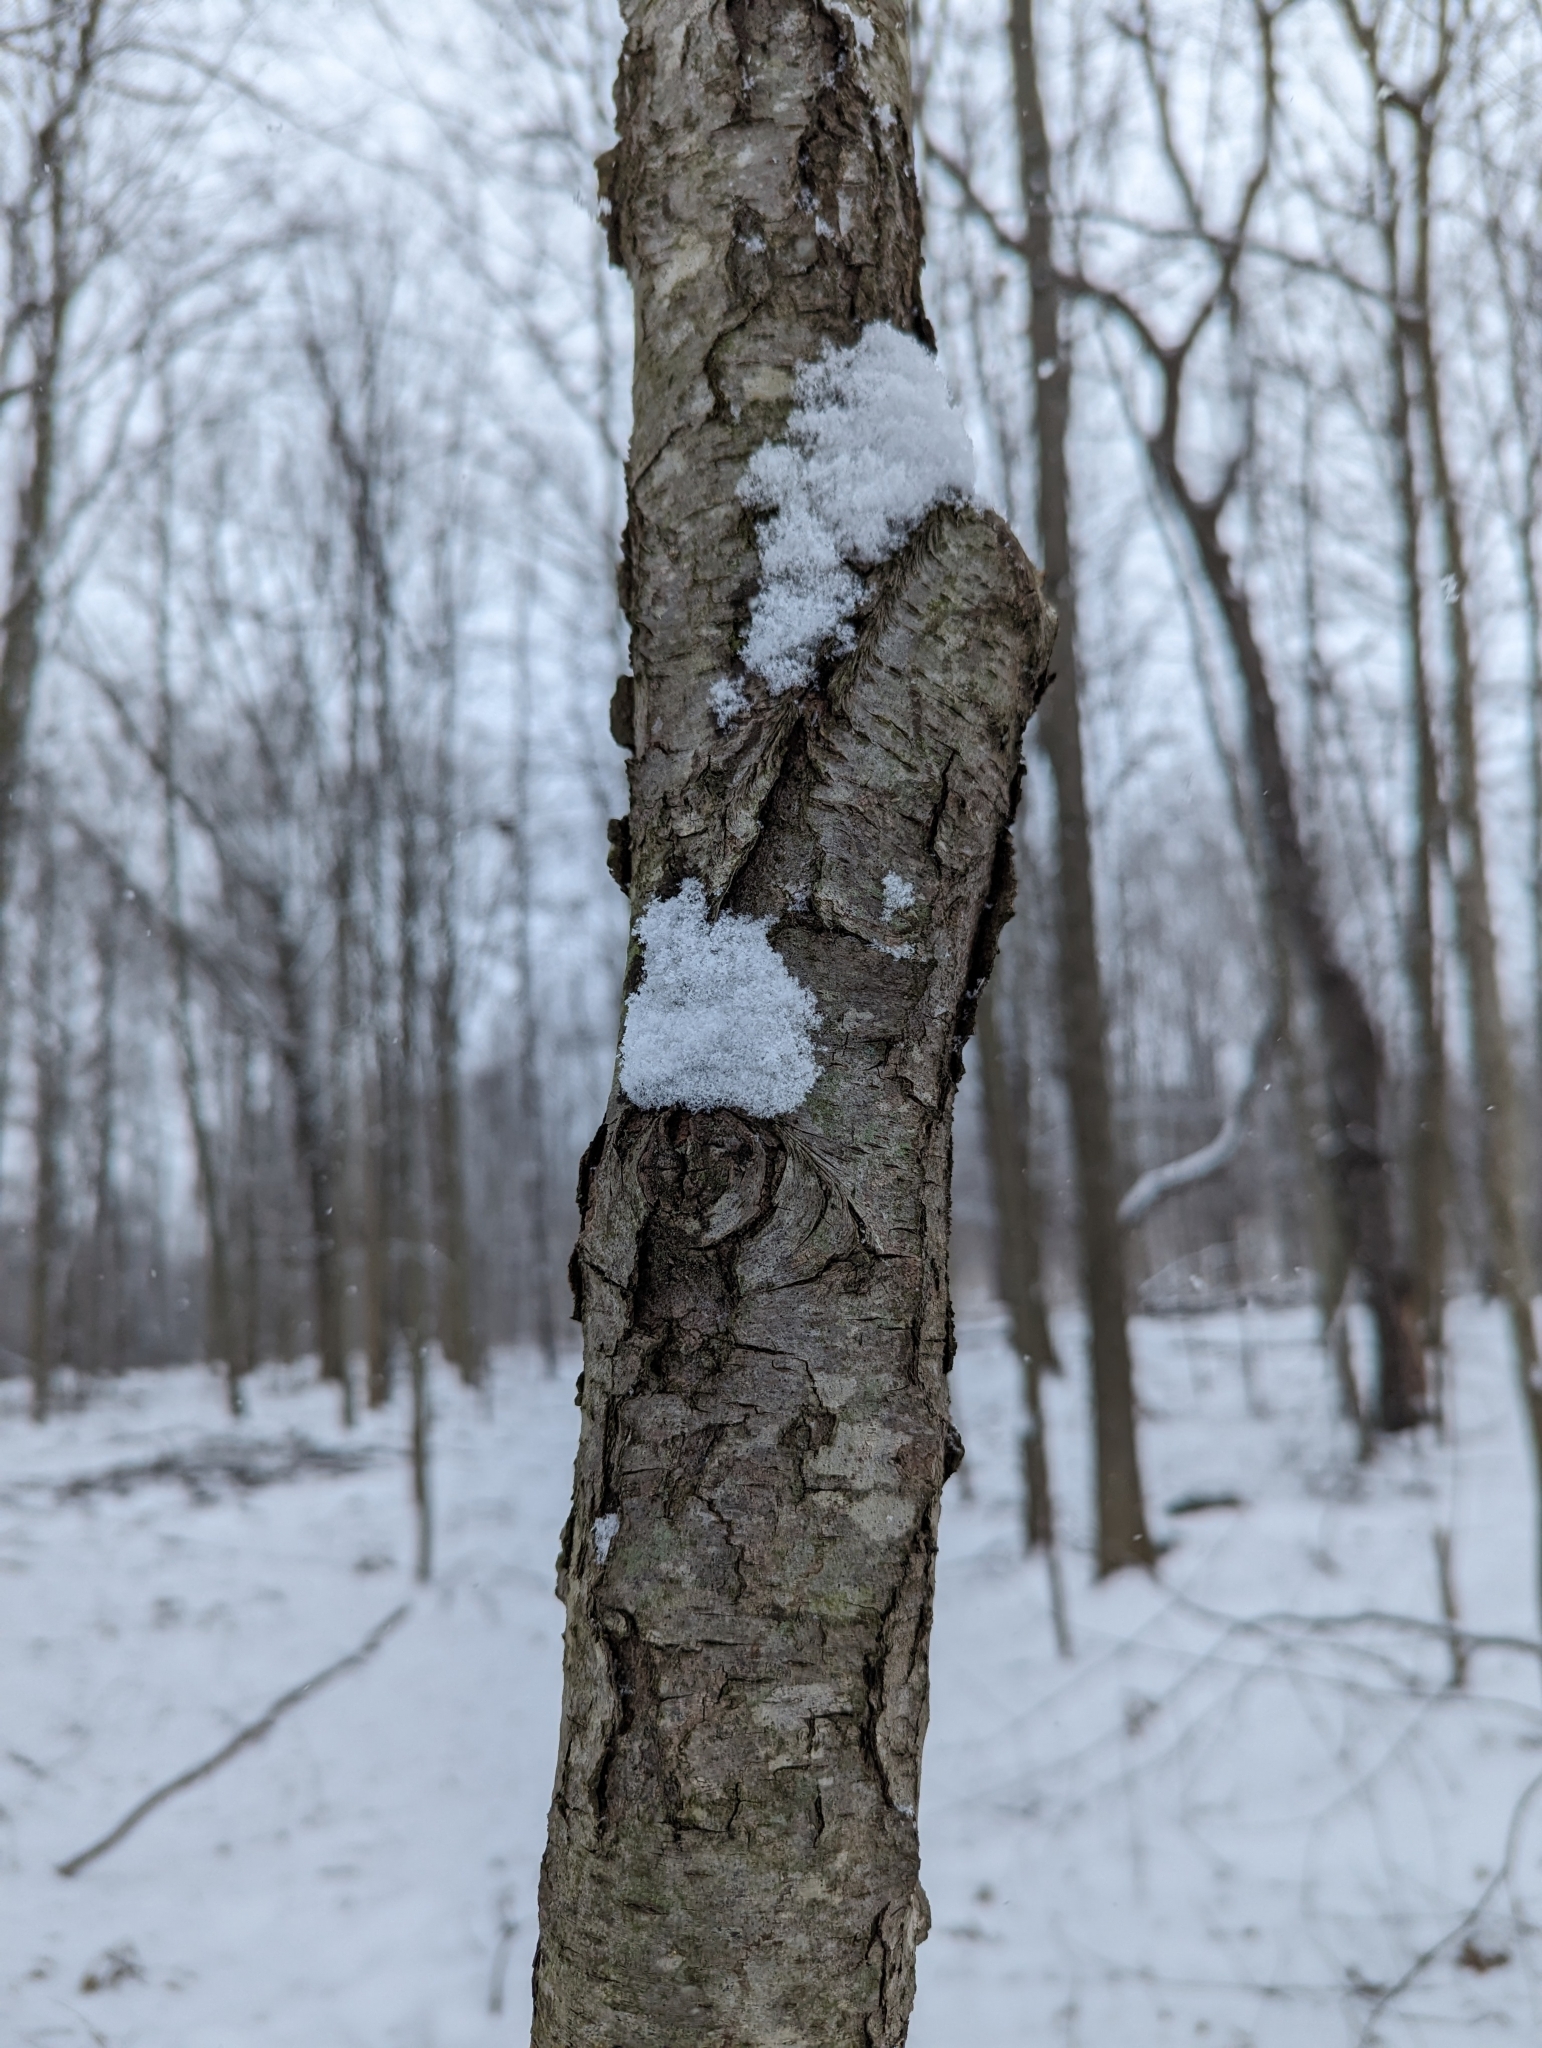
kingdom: Plantae
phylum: Tracheophyta
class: Magnoliopsida
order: Rosales
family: Rosaceae
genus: Prunus
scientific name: Prunus serotina
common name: Black cherry
